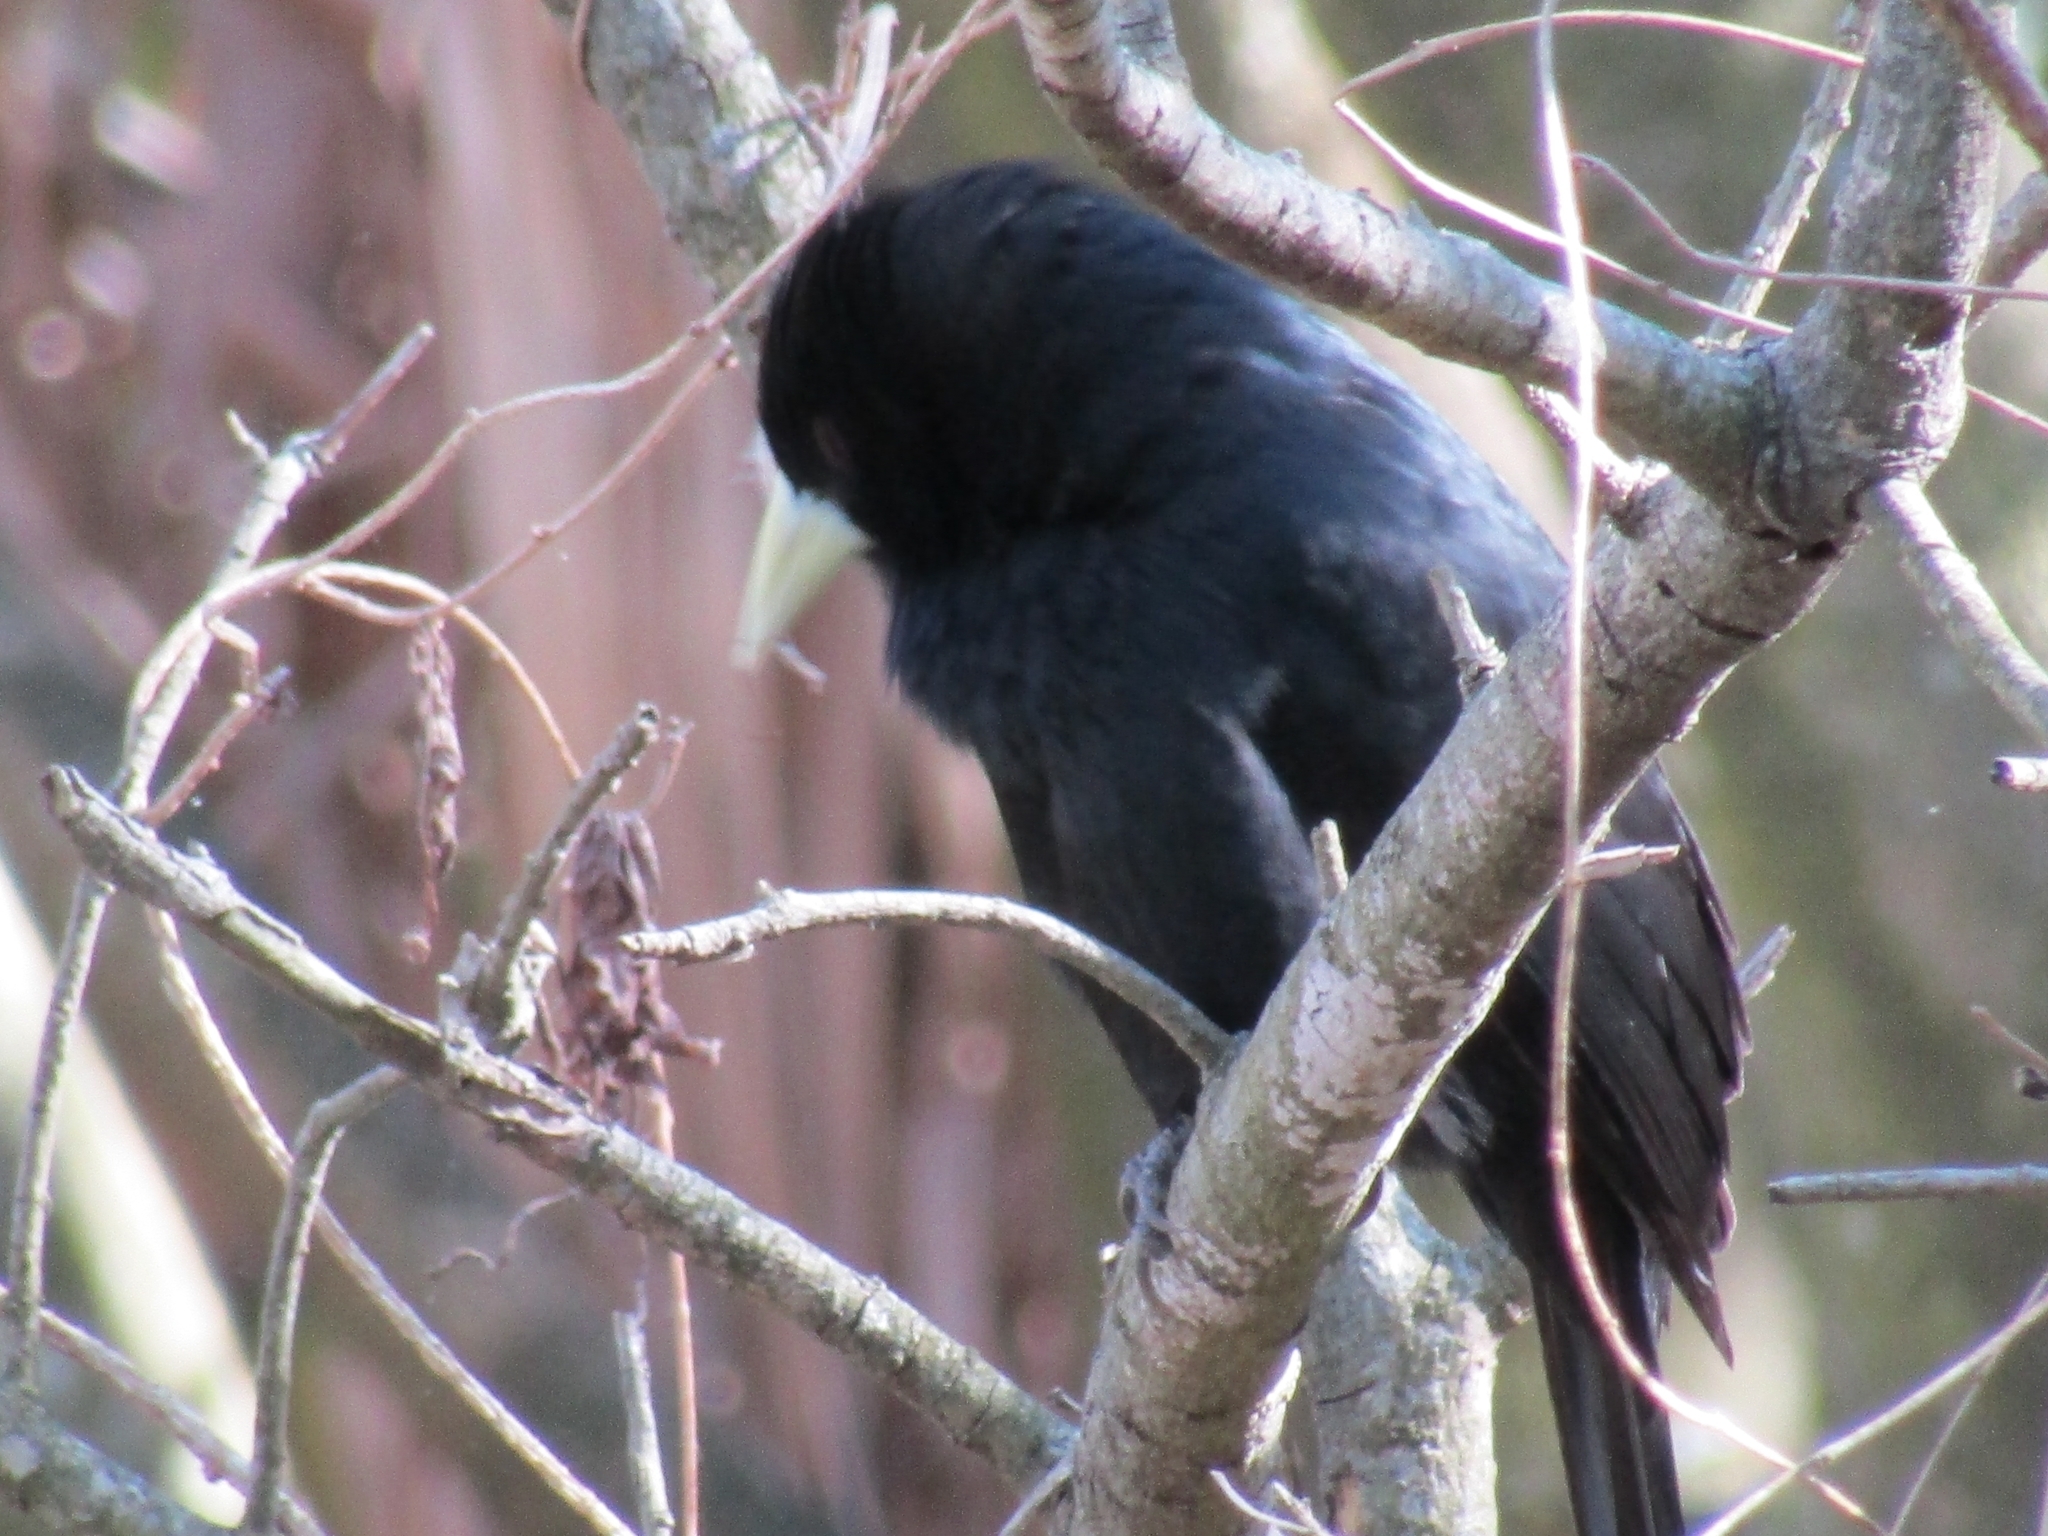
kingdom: Animalia
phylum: Chordata
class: Aves
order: Passeriformes
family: Icteridae
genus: Cacicus
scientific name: Cacicus solitarius
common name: Solitary cacique
